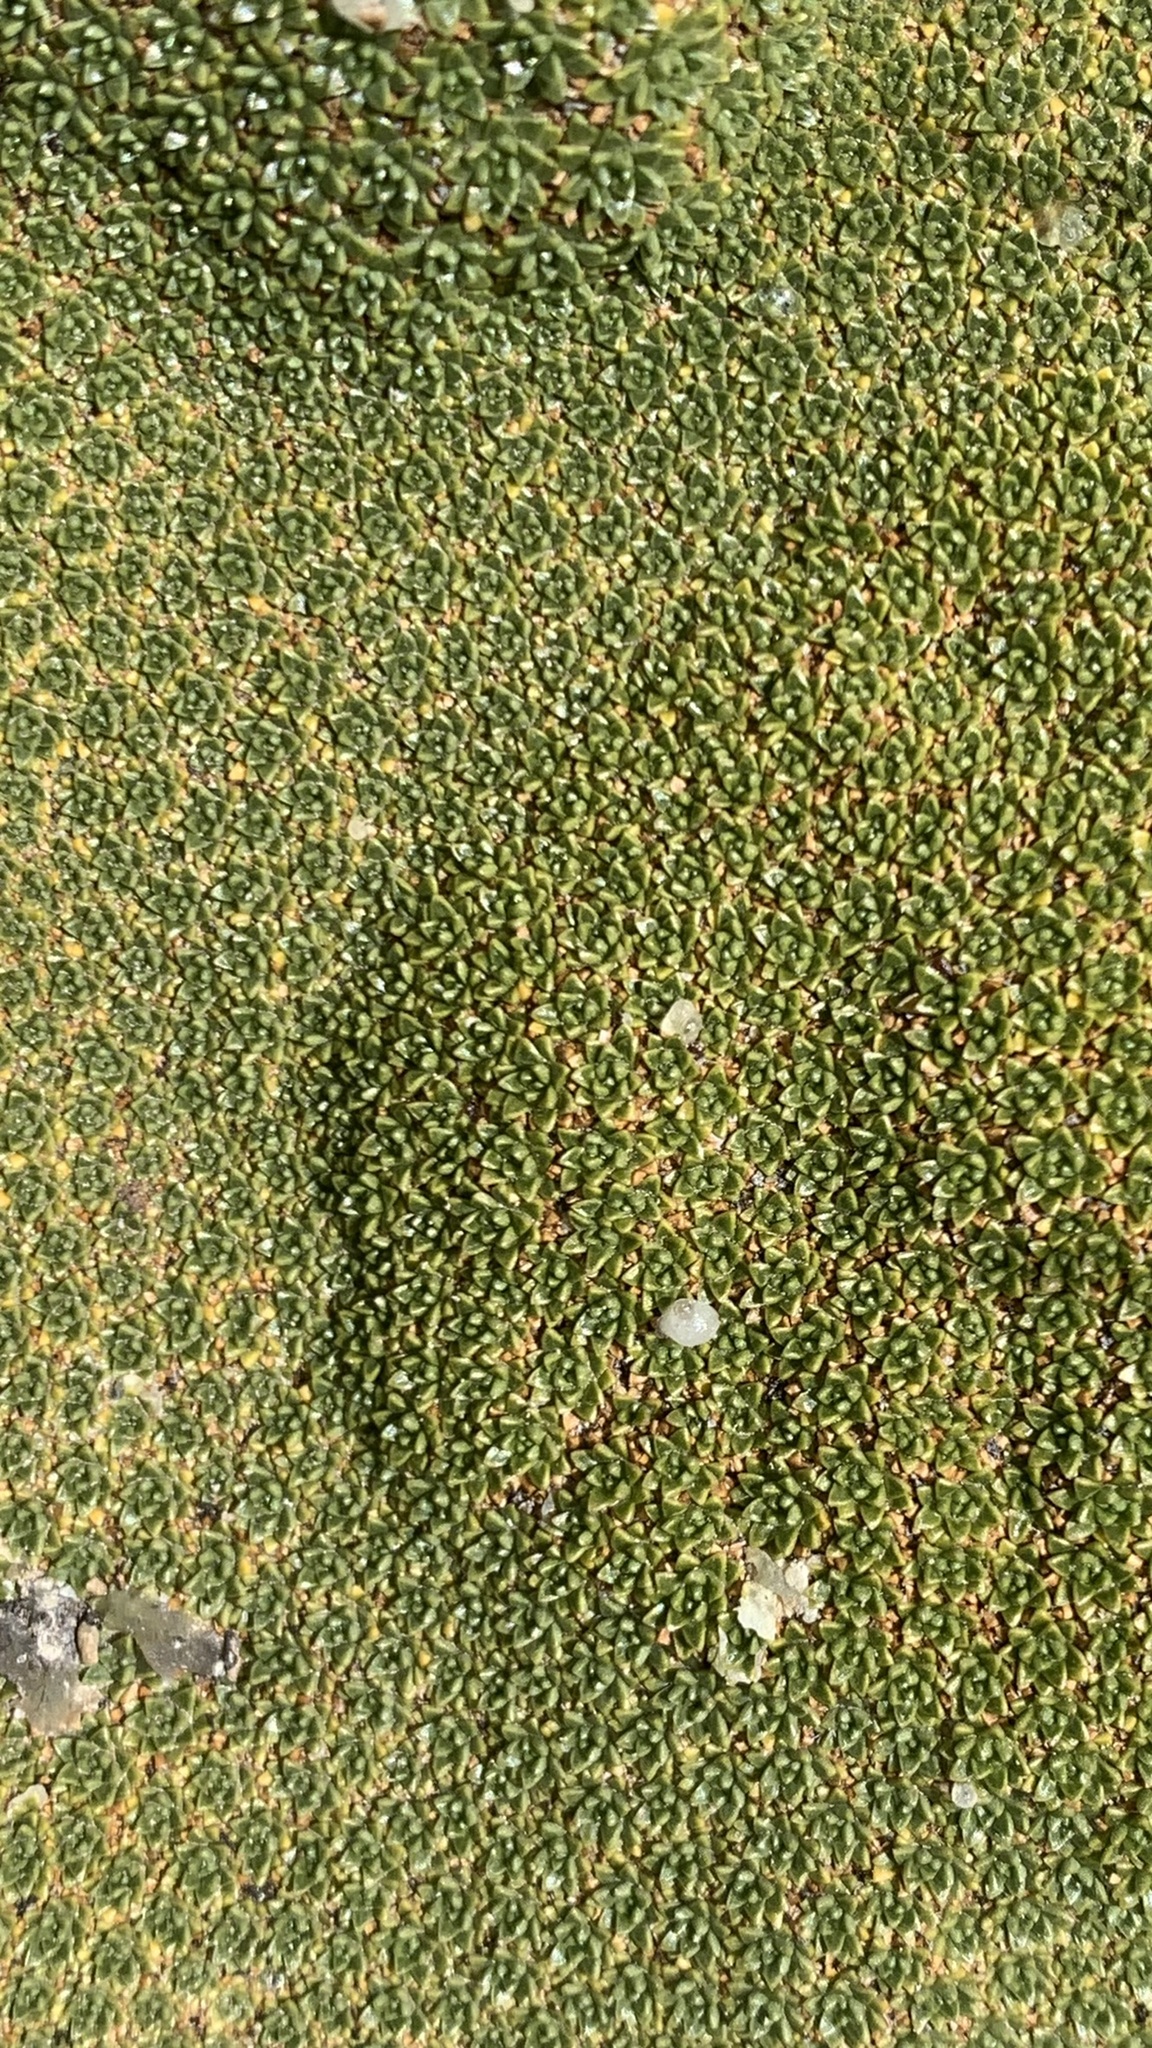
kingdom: Plantae
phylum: Tracheophyta
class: Magnoliopsida
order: Apiales
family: Apiaceae
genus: Azorella
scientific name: Azorella compacta
